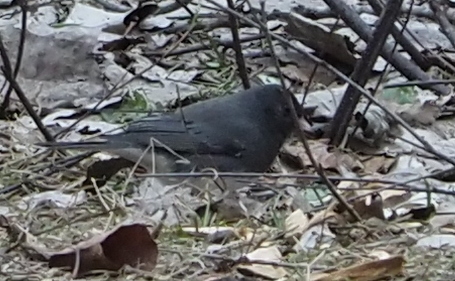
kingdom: Animalia
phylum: Chordata
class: Aves
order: Passeriformes
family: Passerellidae
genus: Junco
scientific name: Junco hyemalis
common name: Dark-eyed junco
